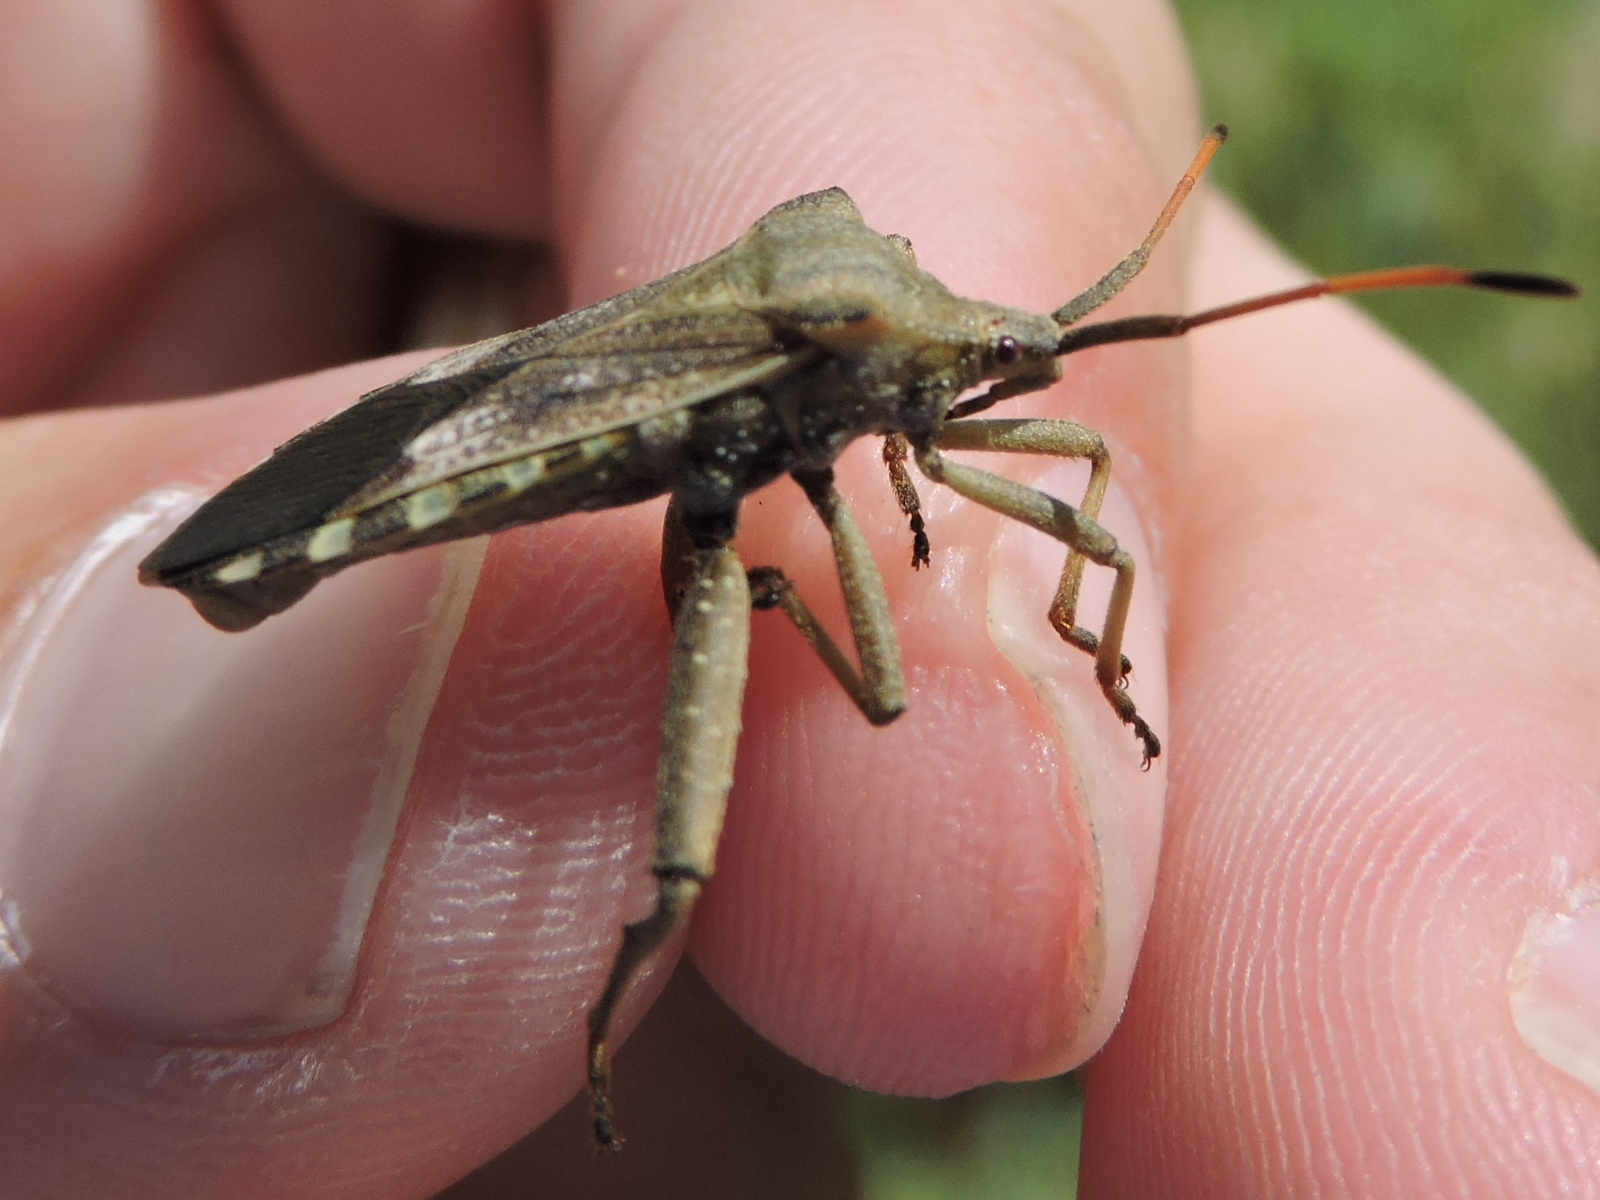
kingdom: Animalia
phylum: Arthropoda
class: Insecta
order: Hemiptera
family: Coreidae
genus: Mozena
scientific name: Mozena obtusa
